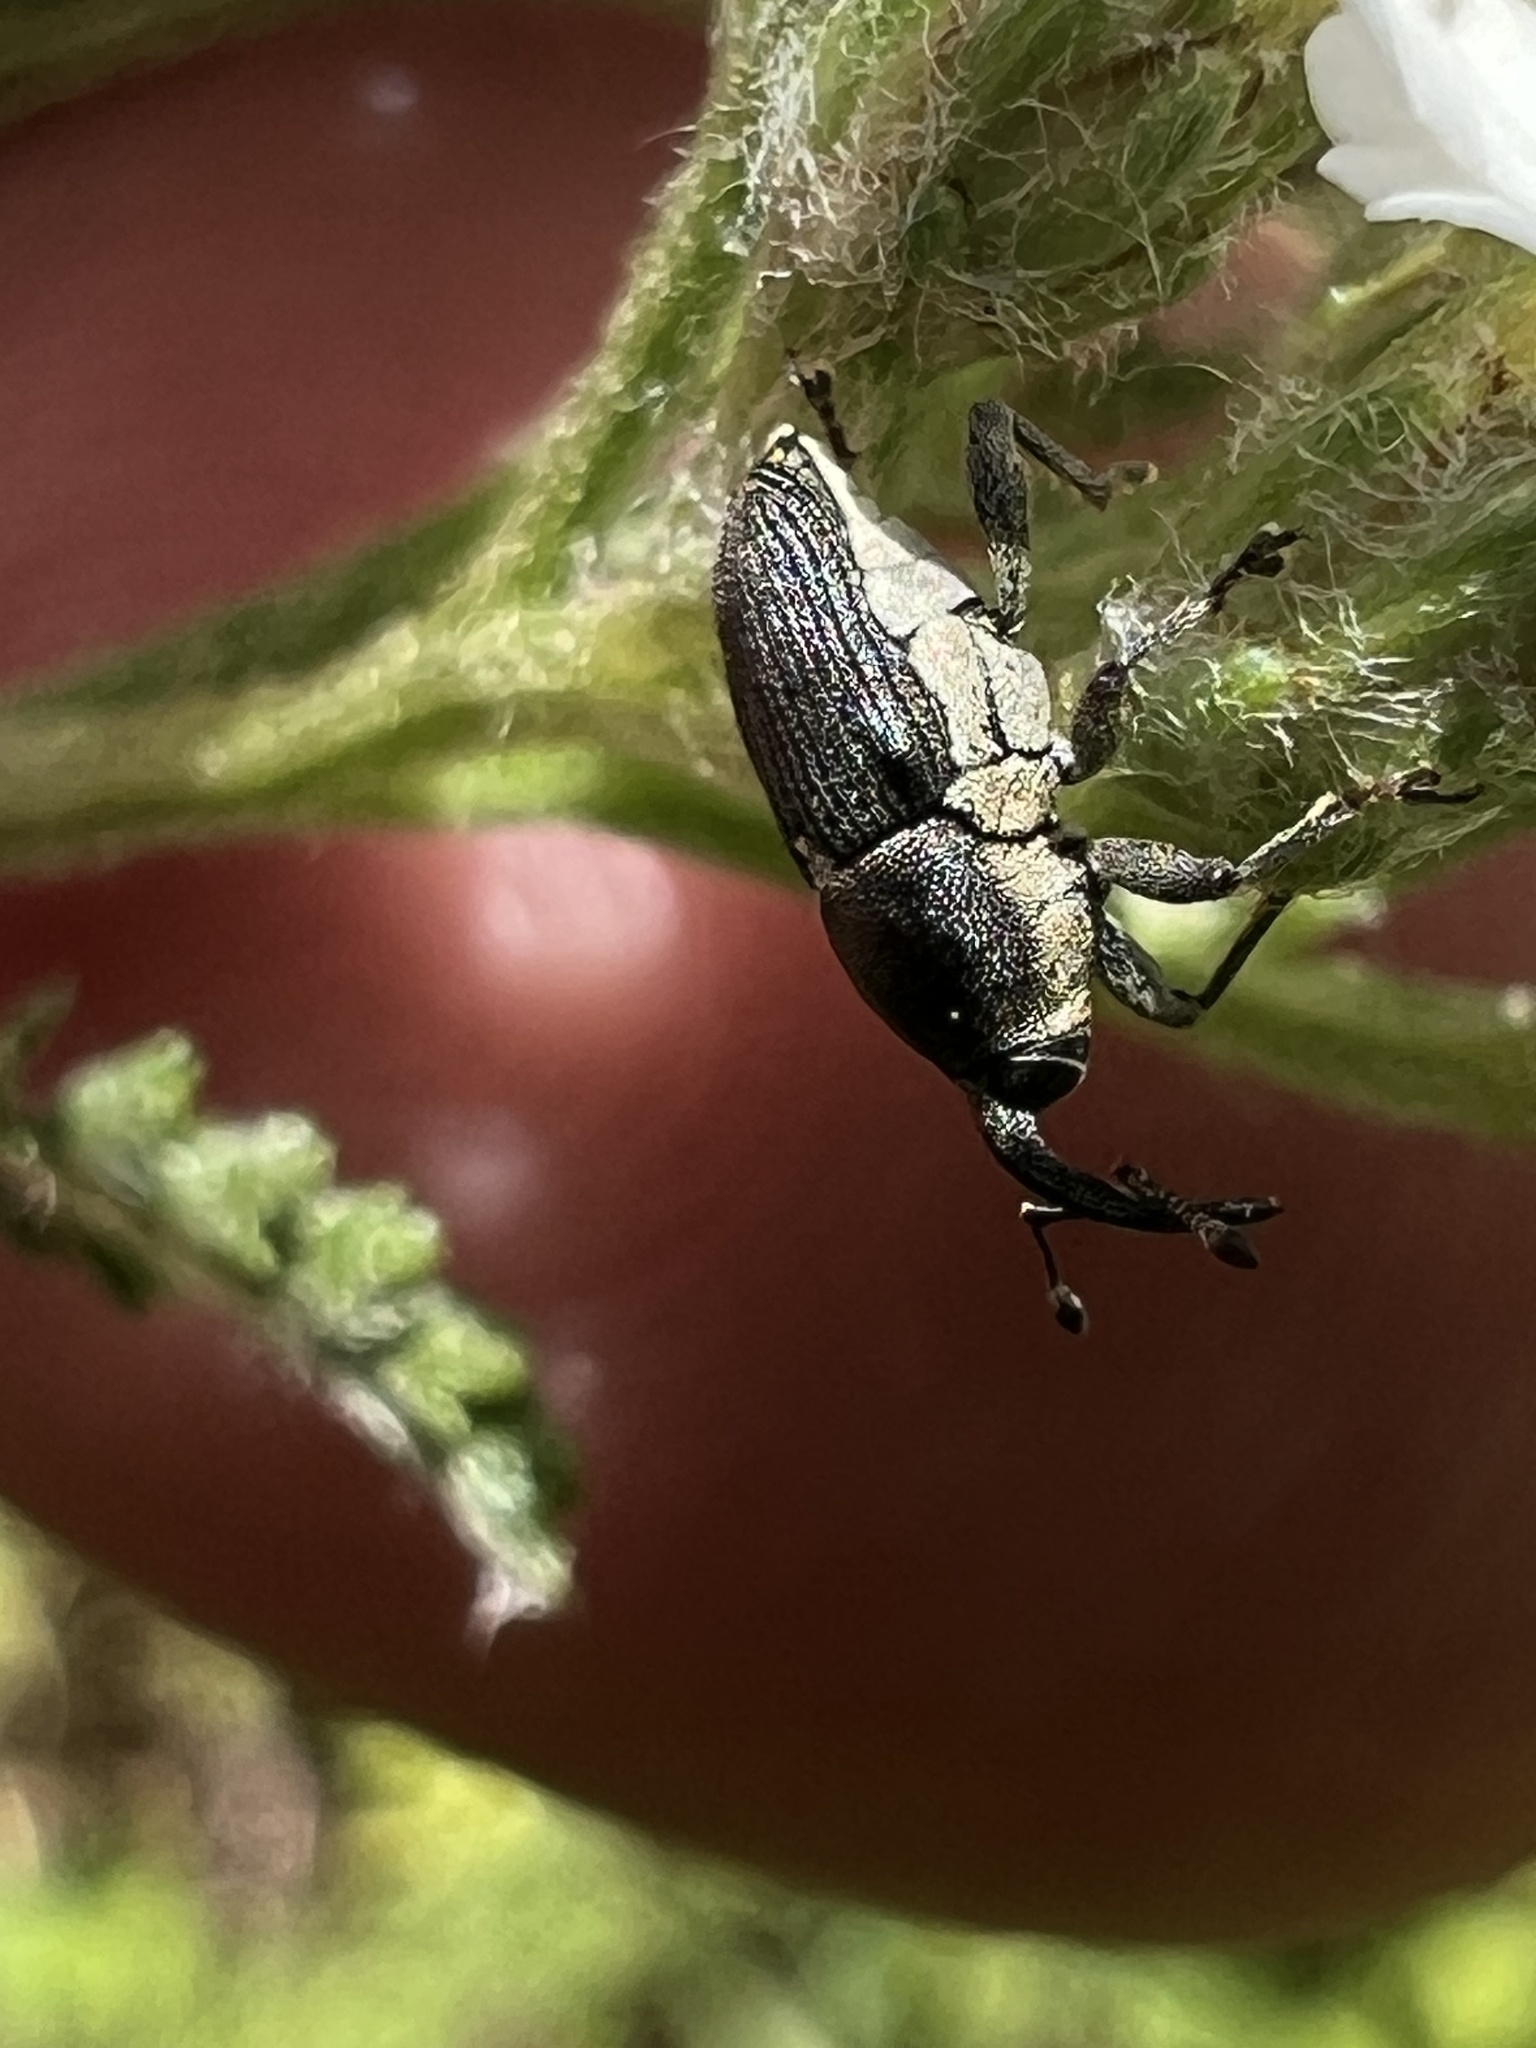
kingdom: Animalia
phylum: Arthropoda
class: Insecta
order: Coleoptera
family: Curculionidae
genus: Odontocorynus
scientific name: Odontocorynus salebrosus
